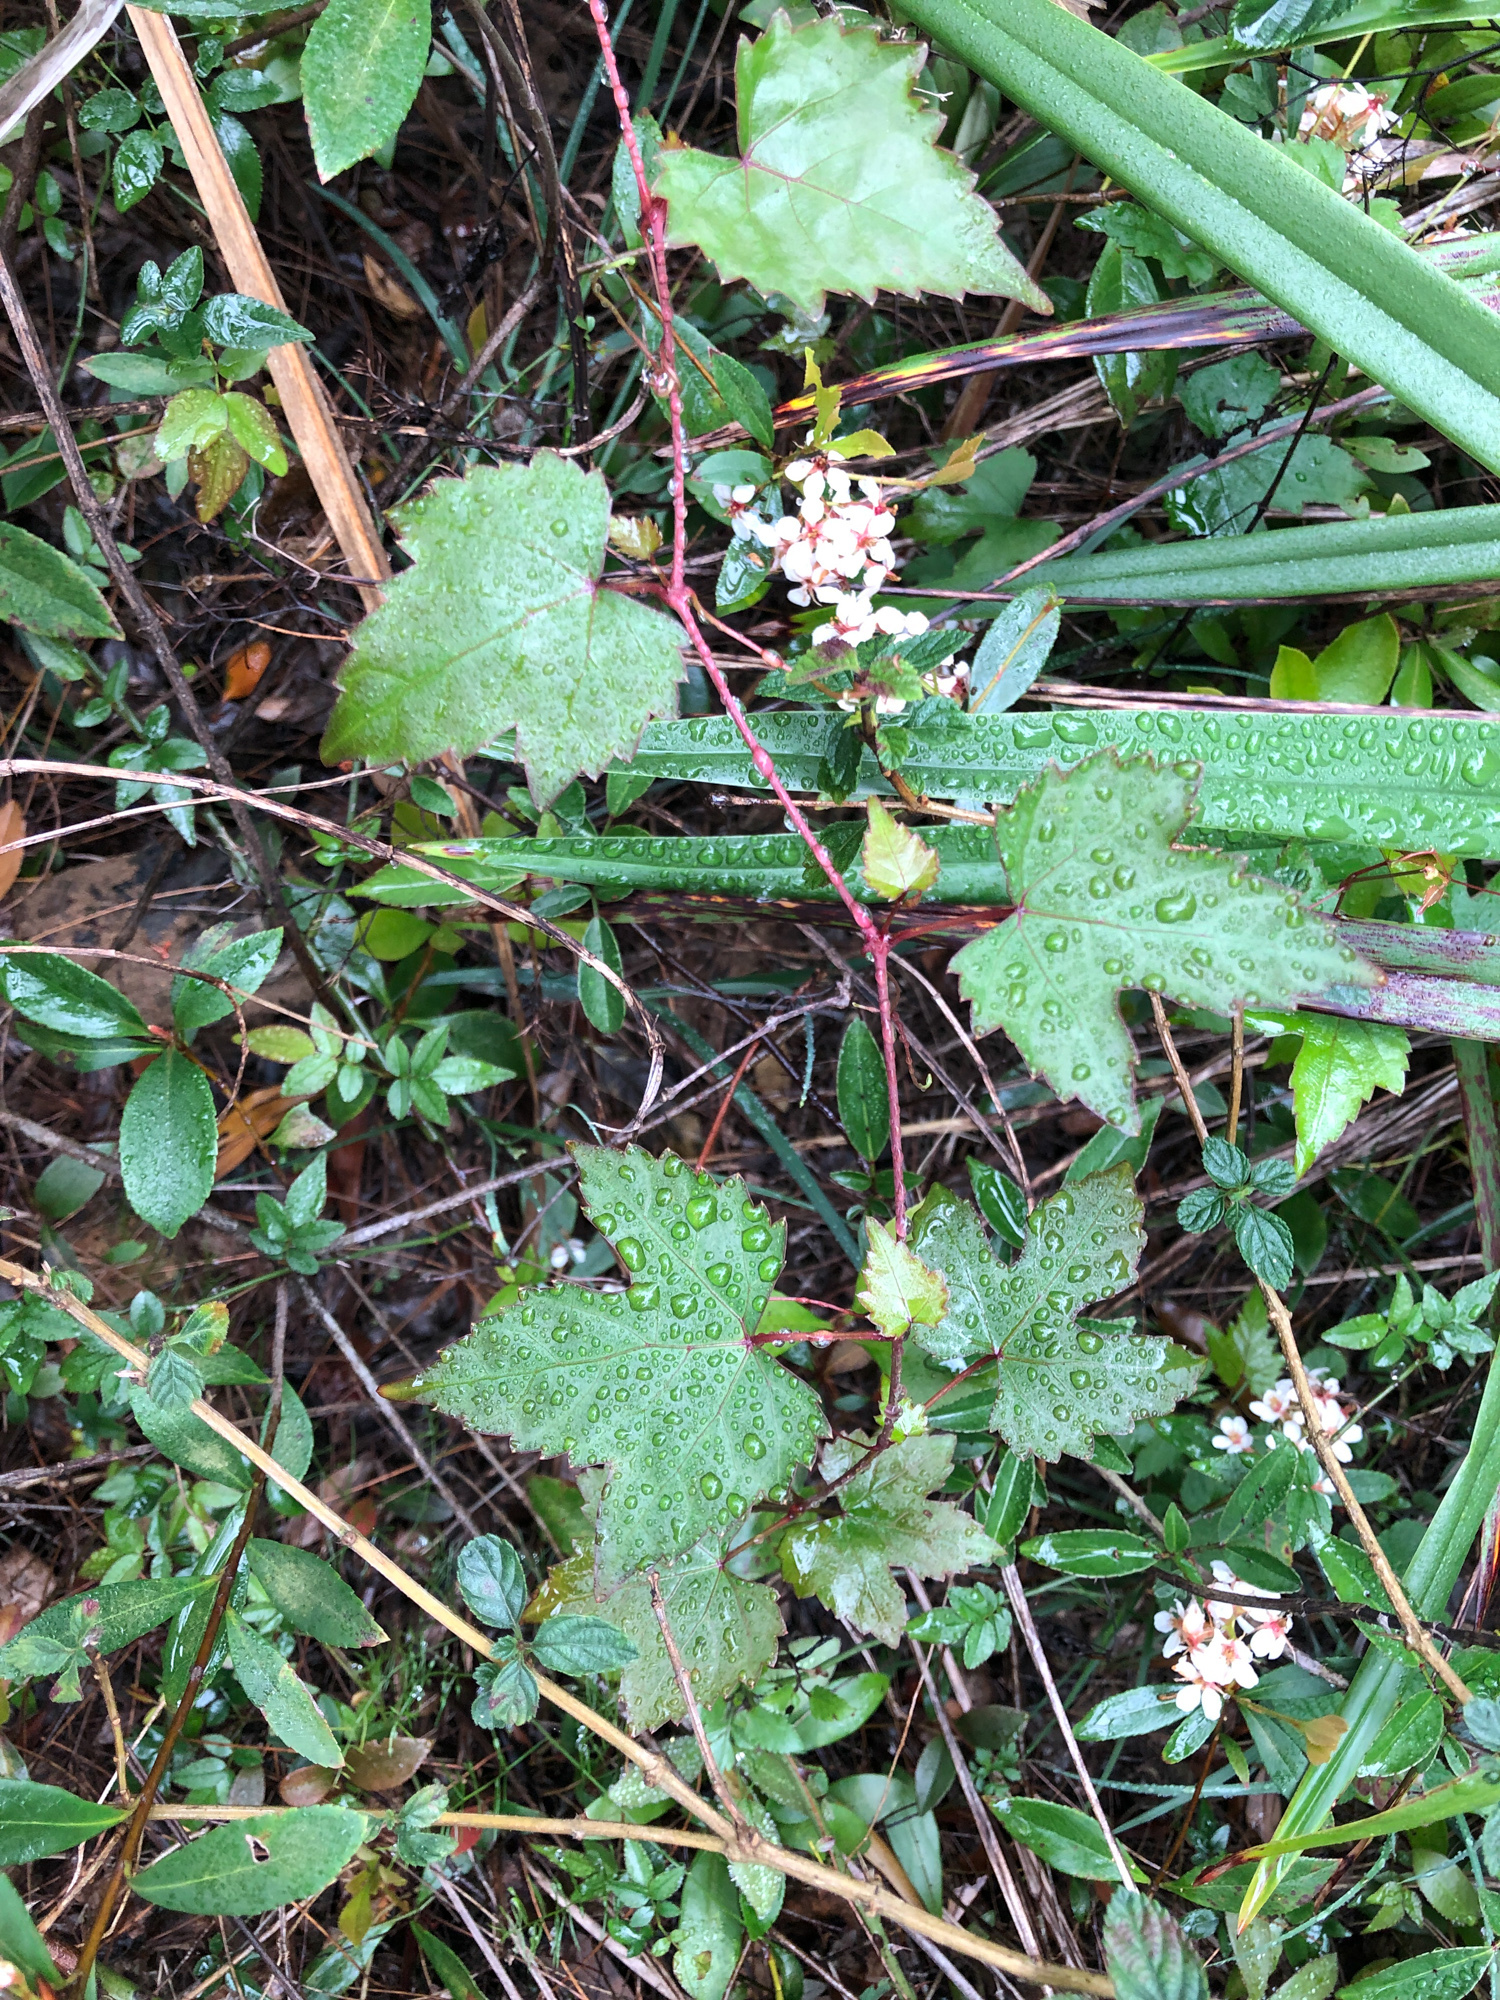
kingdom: Plantae
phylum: Tracheophyta
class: Magnoliopsida
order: Vitales
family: Vitaceae
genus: Ampelopsis
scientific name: Ampelopsis glandulosa
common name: Amur peppervine
